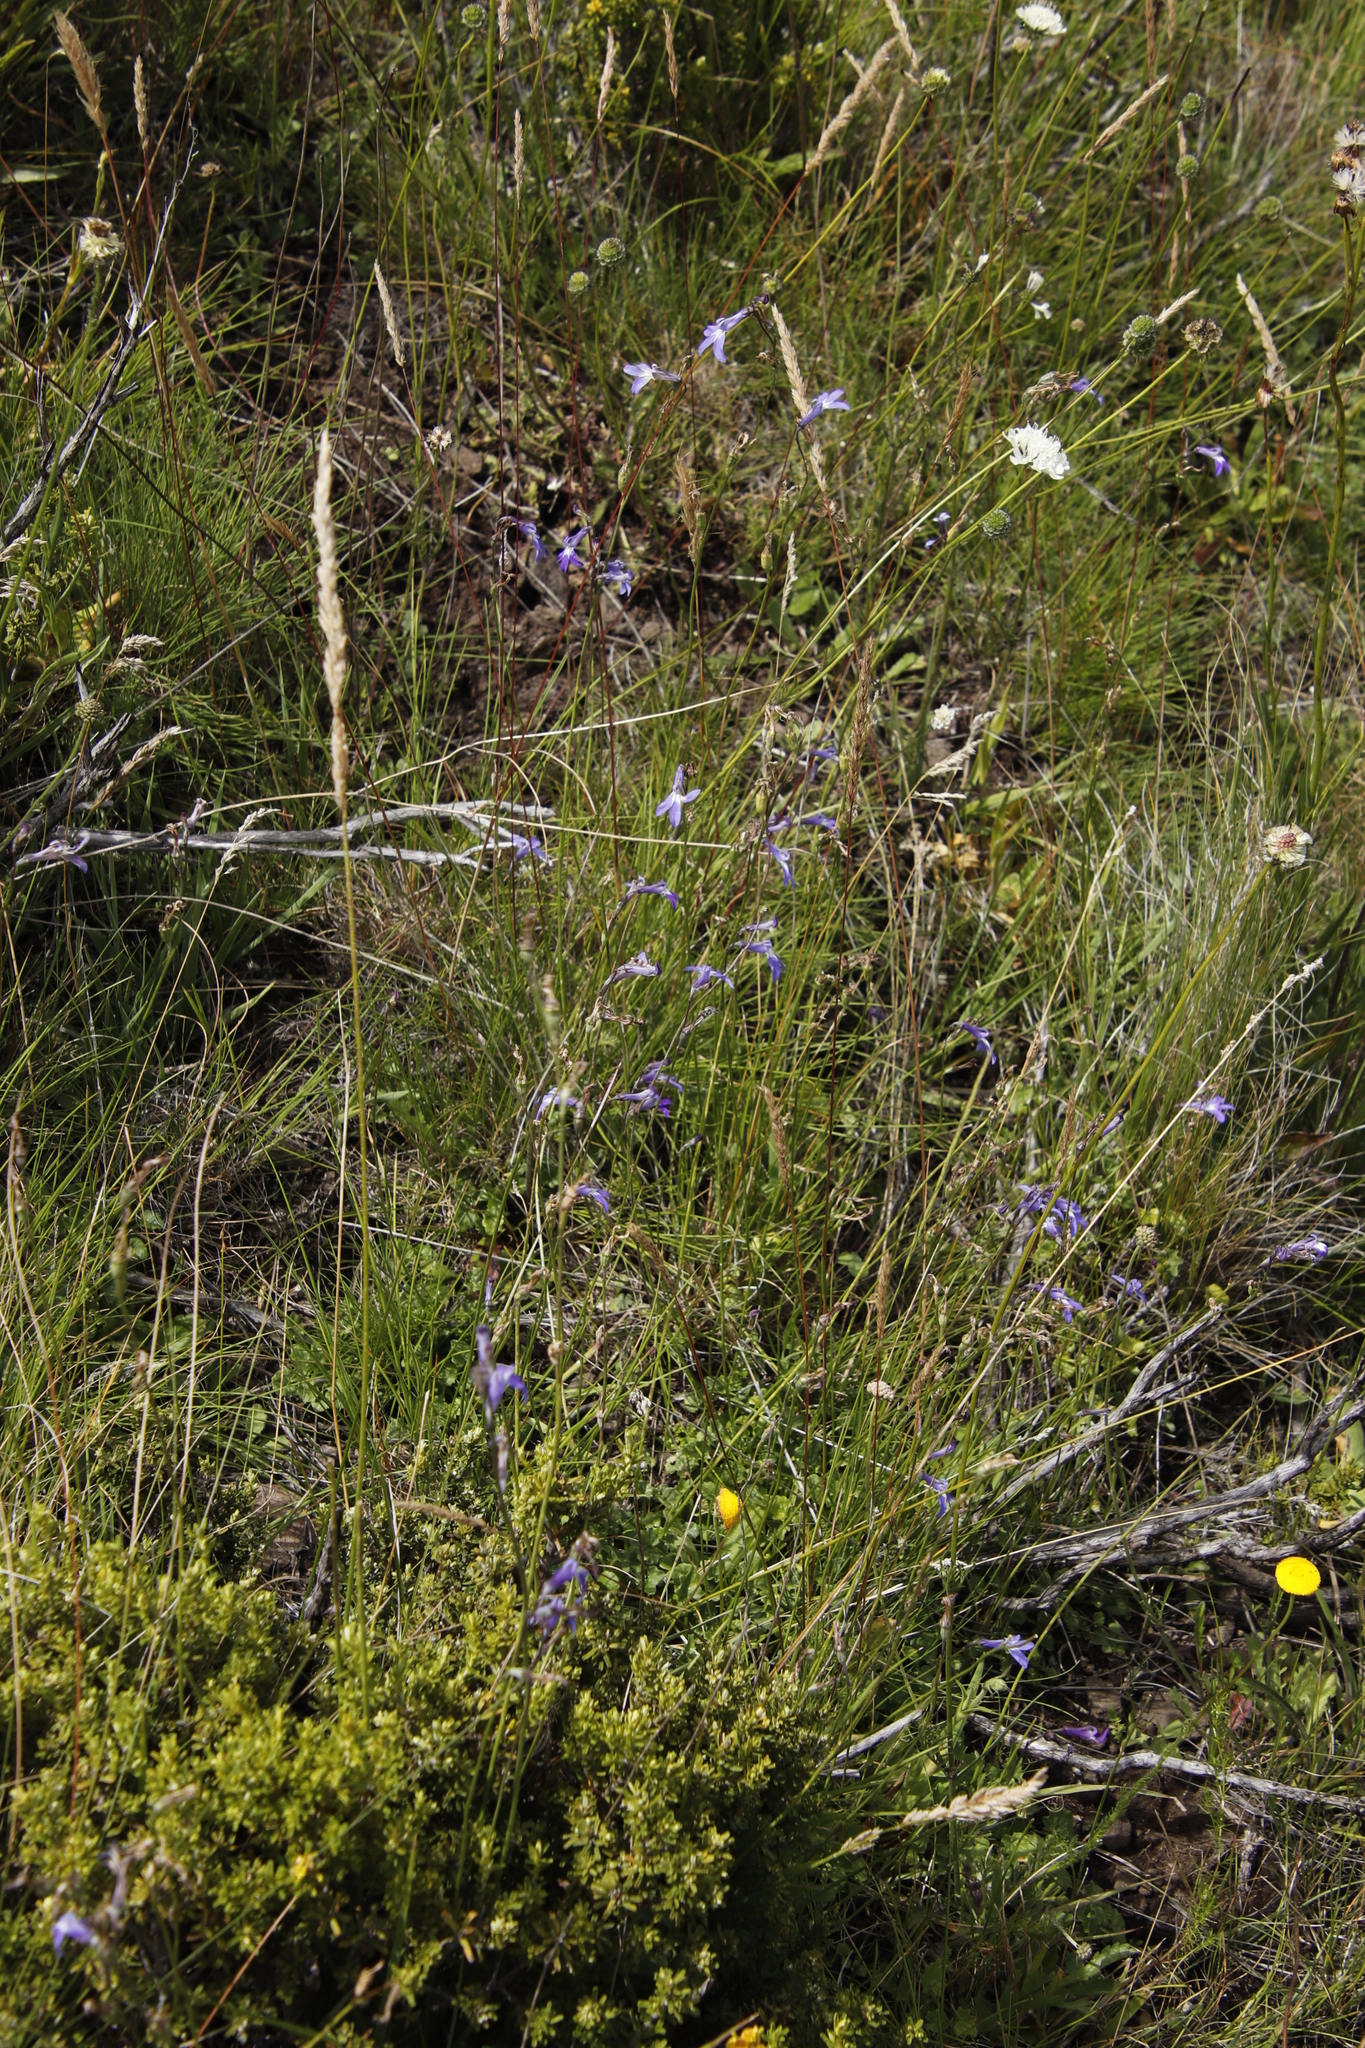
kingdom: Plantae
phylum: Tracheophyta
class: Magnoliopsida
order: Asterales
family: Campanulaceae
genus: Lobelia
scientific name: Lobelia preslii
